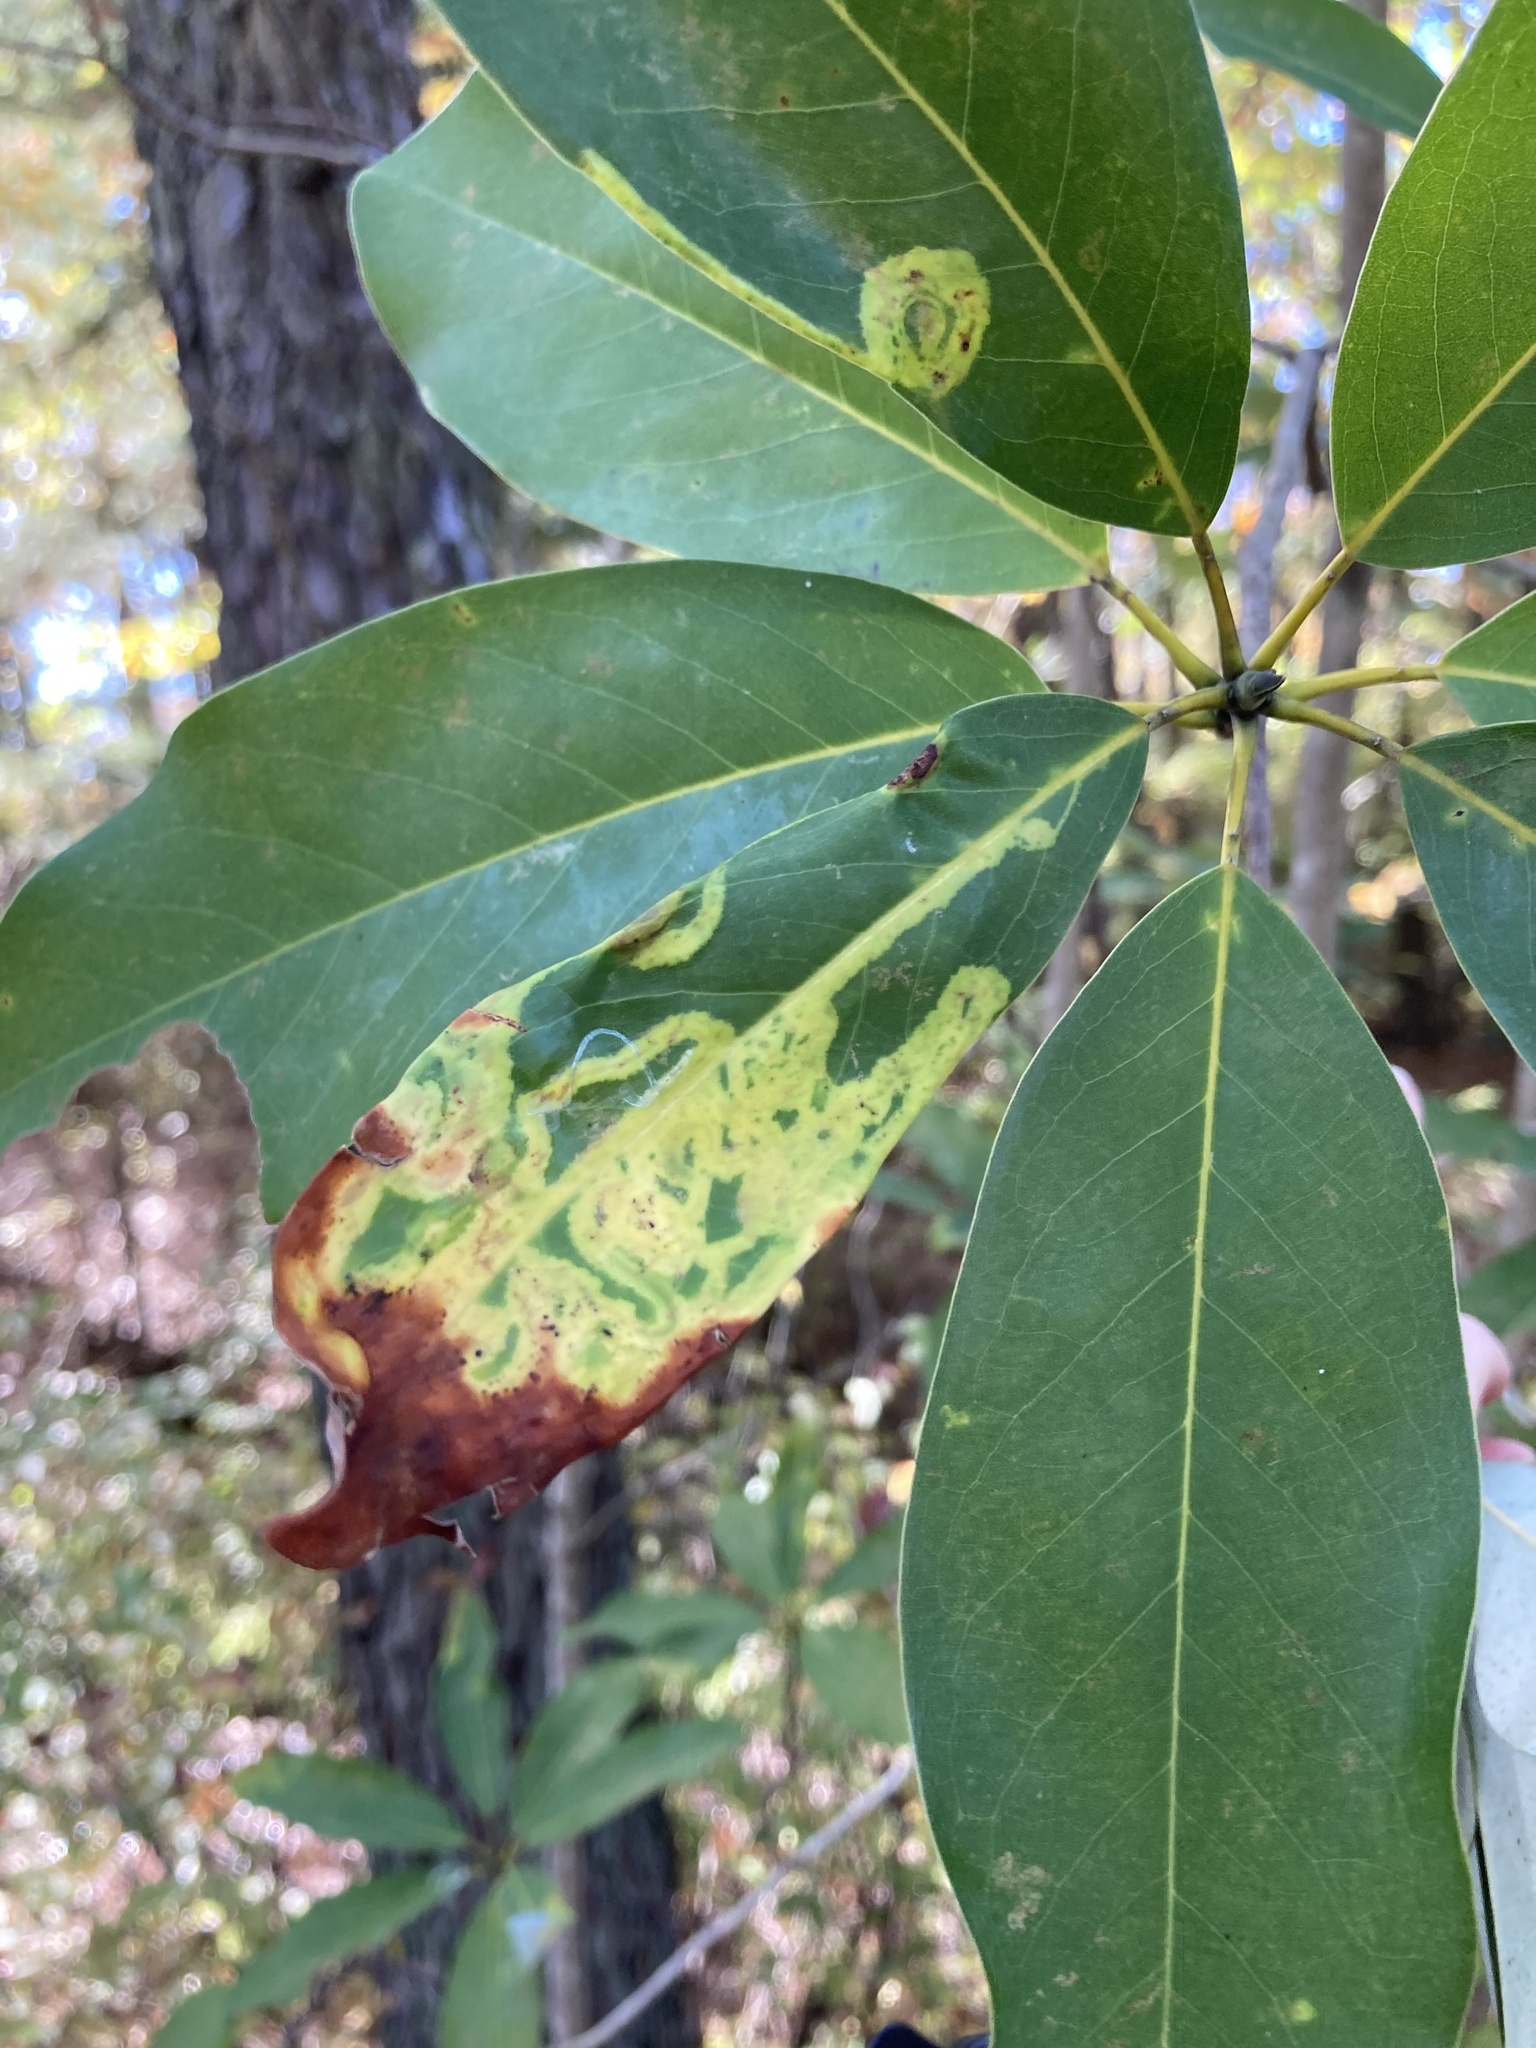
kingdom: Animalia
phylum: Arthropoda
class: Insecta
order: Lepidoptera
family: Gracillariidae
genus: Phyllocnistis
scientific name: Phyllocnistis liriodendronella
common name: Tulip tree leaf miner
